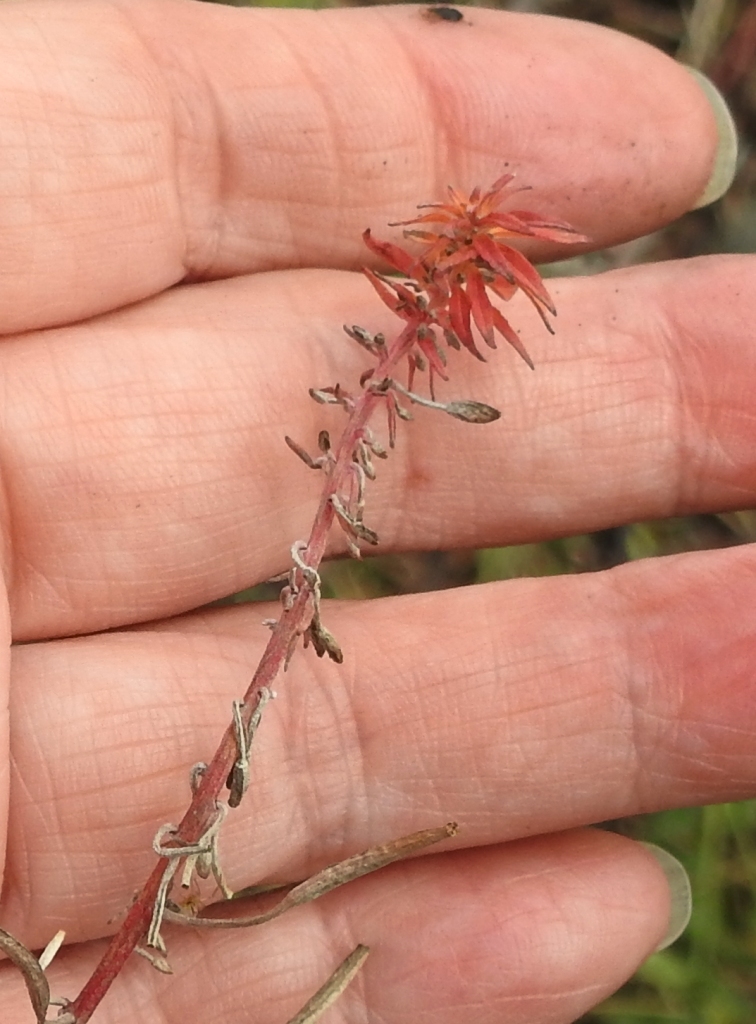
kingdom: Plantae
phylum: Tracheophyta
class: Magnoliopsida
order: Myrtales
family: Onagraceae
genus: Chamaenerion
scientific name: Chamaenerion angustifolium
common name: Fireweed
